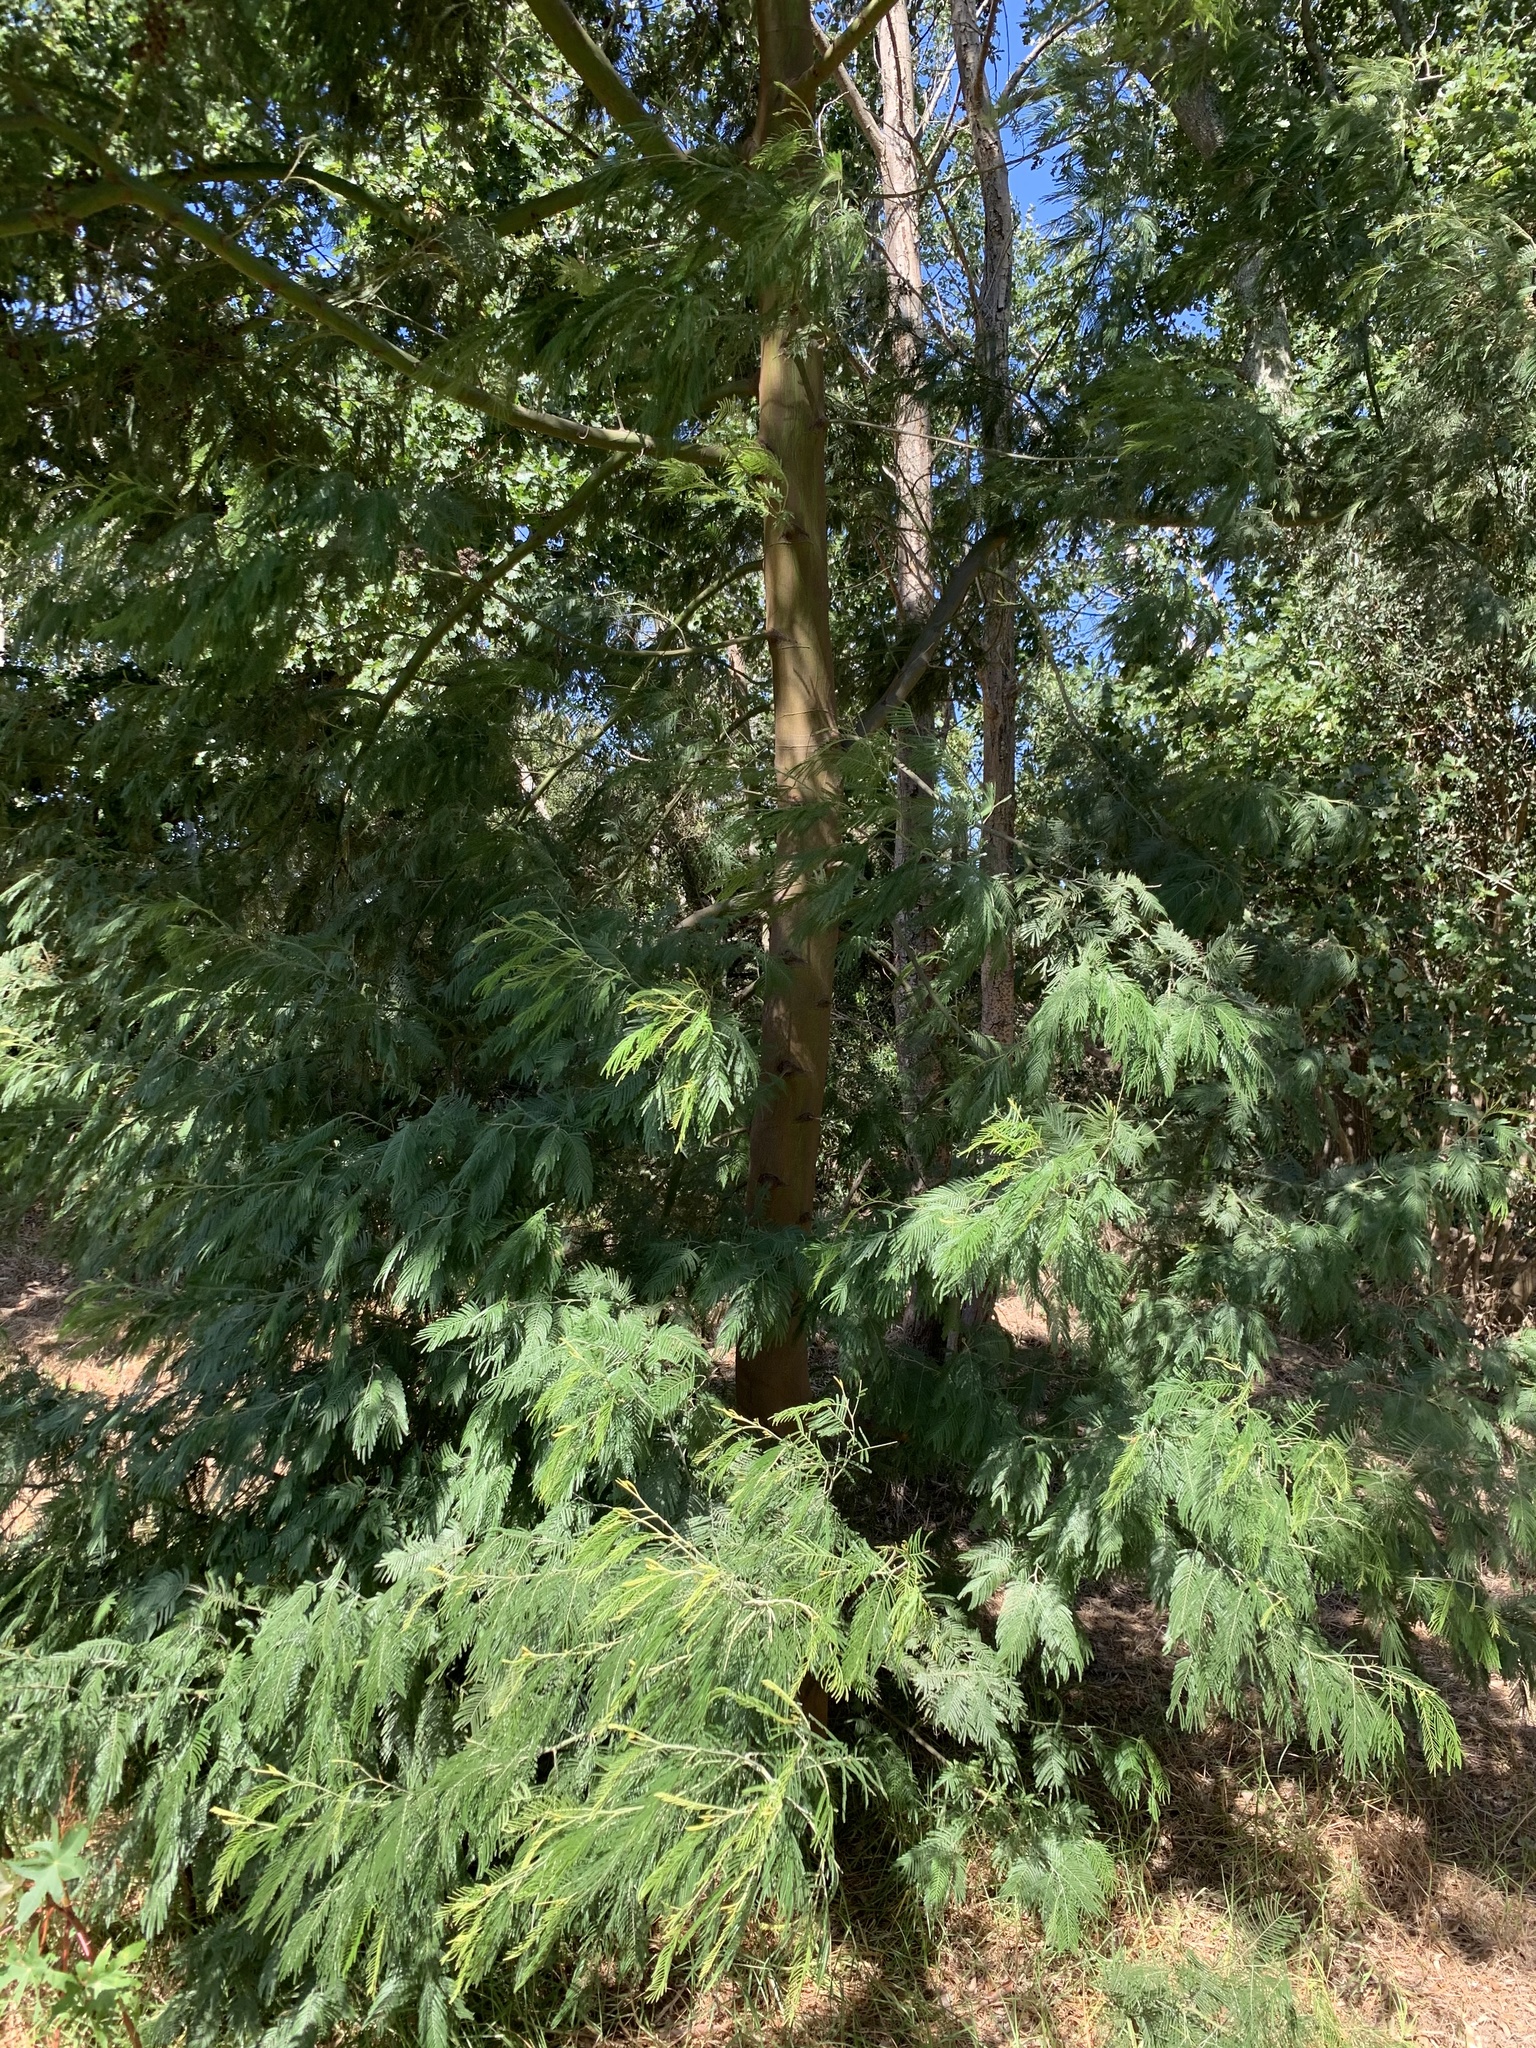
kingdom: Plantae
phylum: Tracheophyta
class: Magnoliopsida
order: Fabales
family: Fabaceae
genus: Acacia
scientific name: Acacia mearnsii
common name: Black wattle
